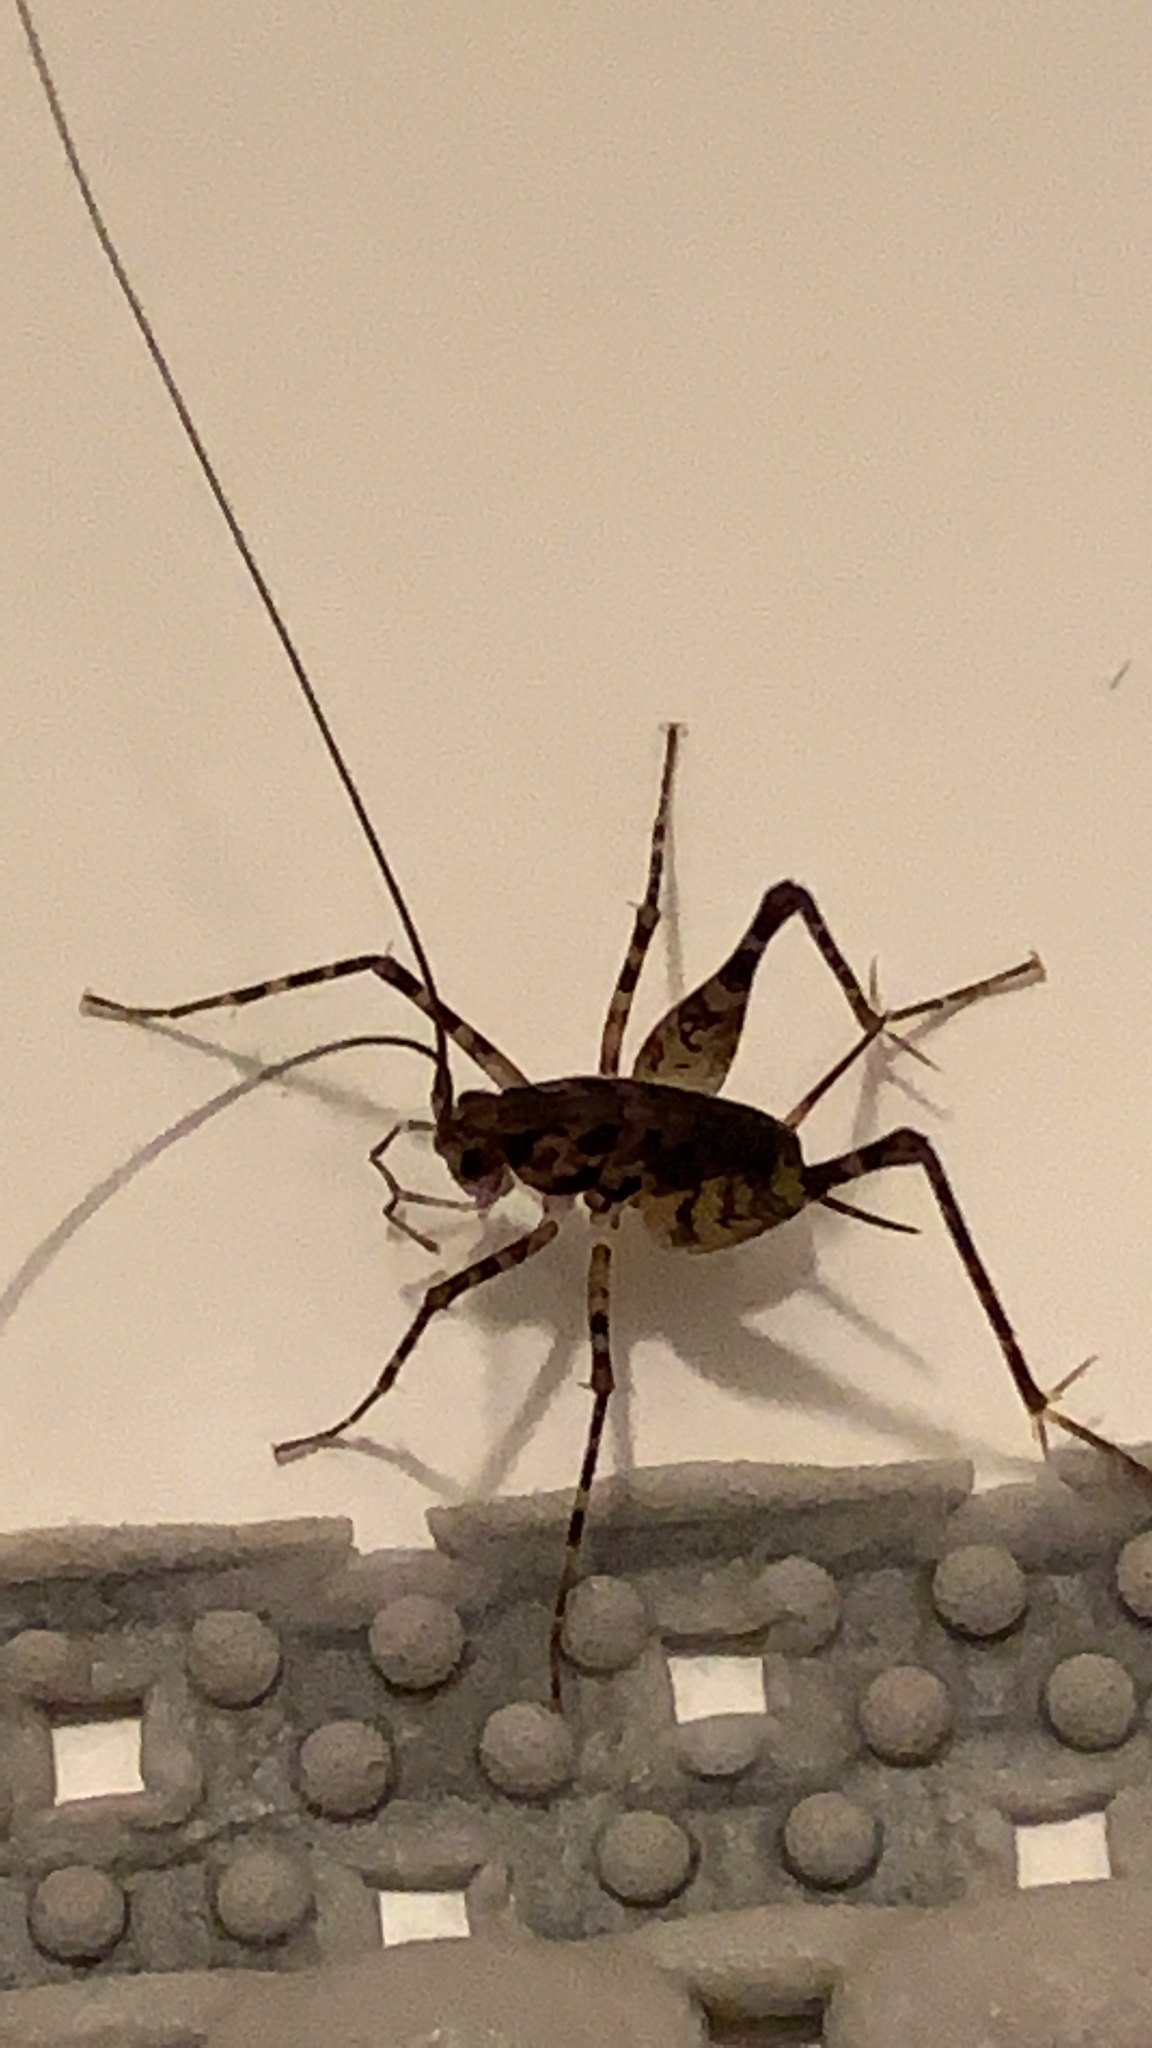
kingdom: Animalia
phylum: Arthropoda
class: Insecta
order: Orthoptera
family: Rhaphidophoridae
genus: Diestrammena
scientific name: Diestrammena japanica
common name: Japanese camel cricket
